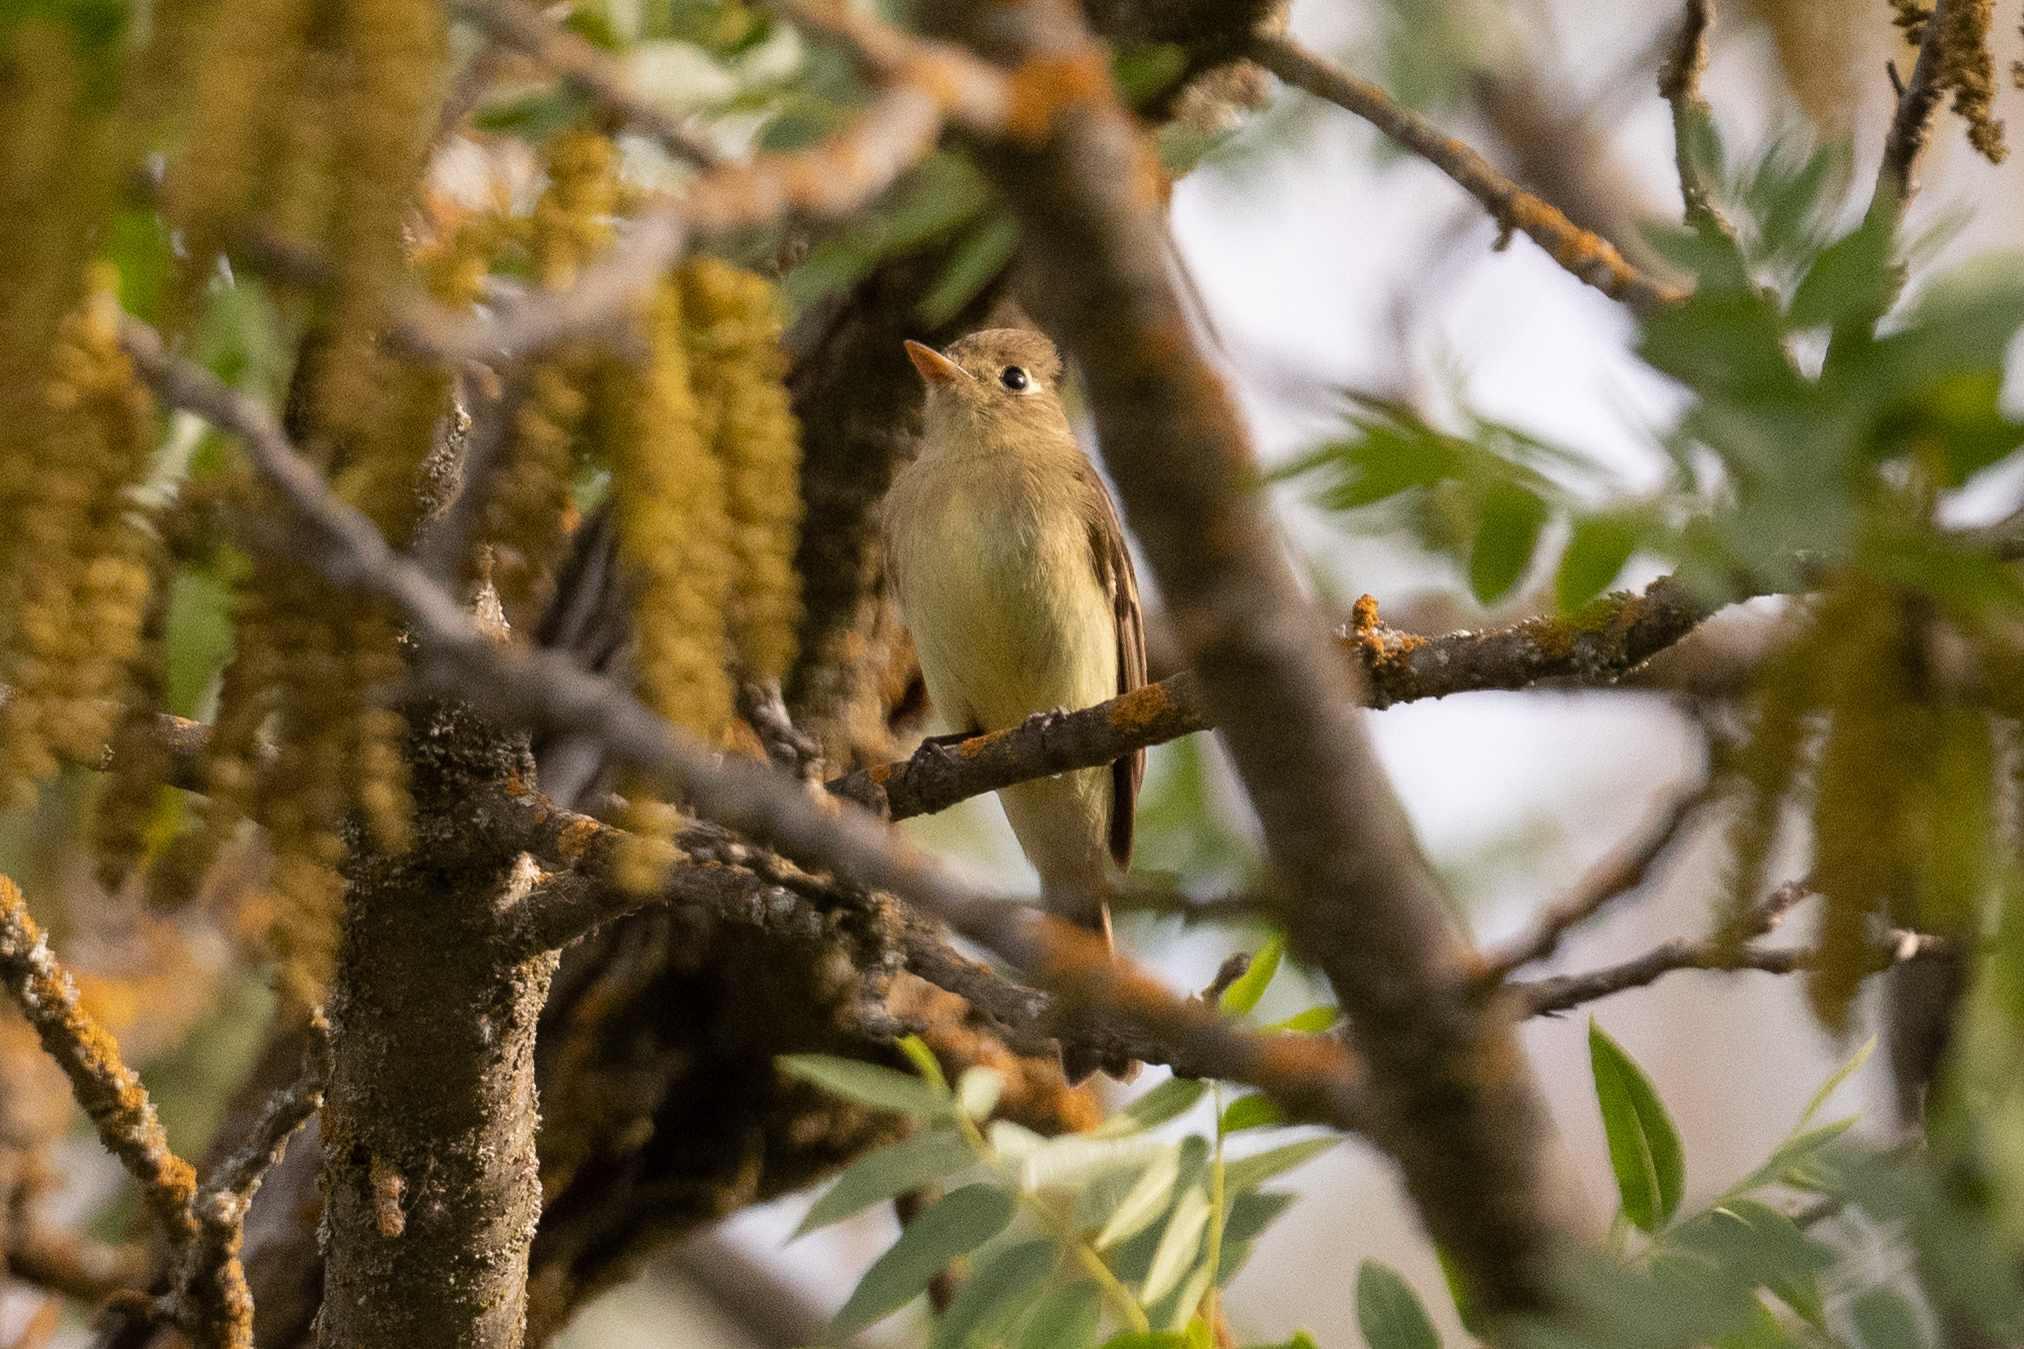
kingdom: Animalia
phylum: Chordata
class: Aves
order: Passeriformes
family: Tyrannidae
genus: Empidonax
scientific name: Empidonax difficilis
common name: Pacific-slope flycatcher
